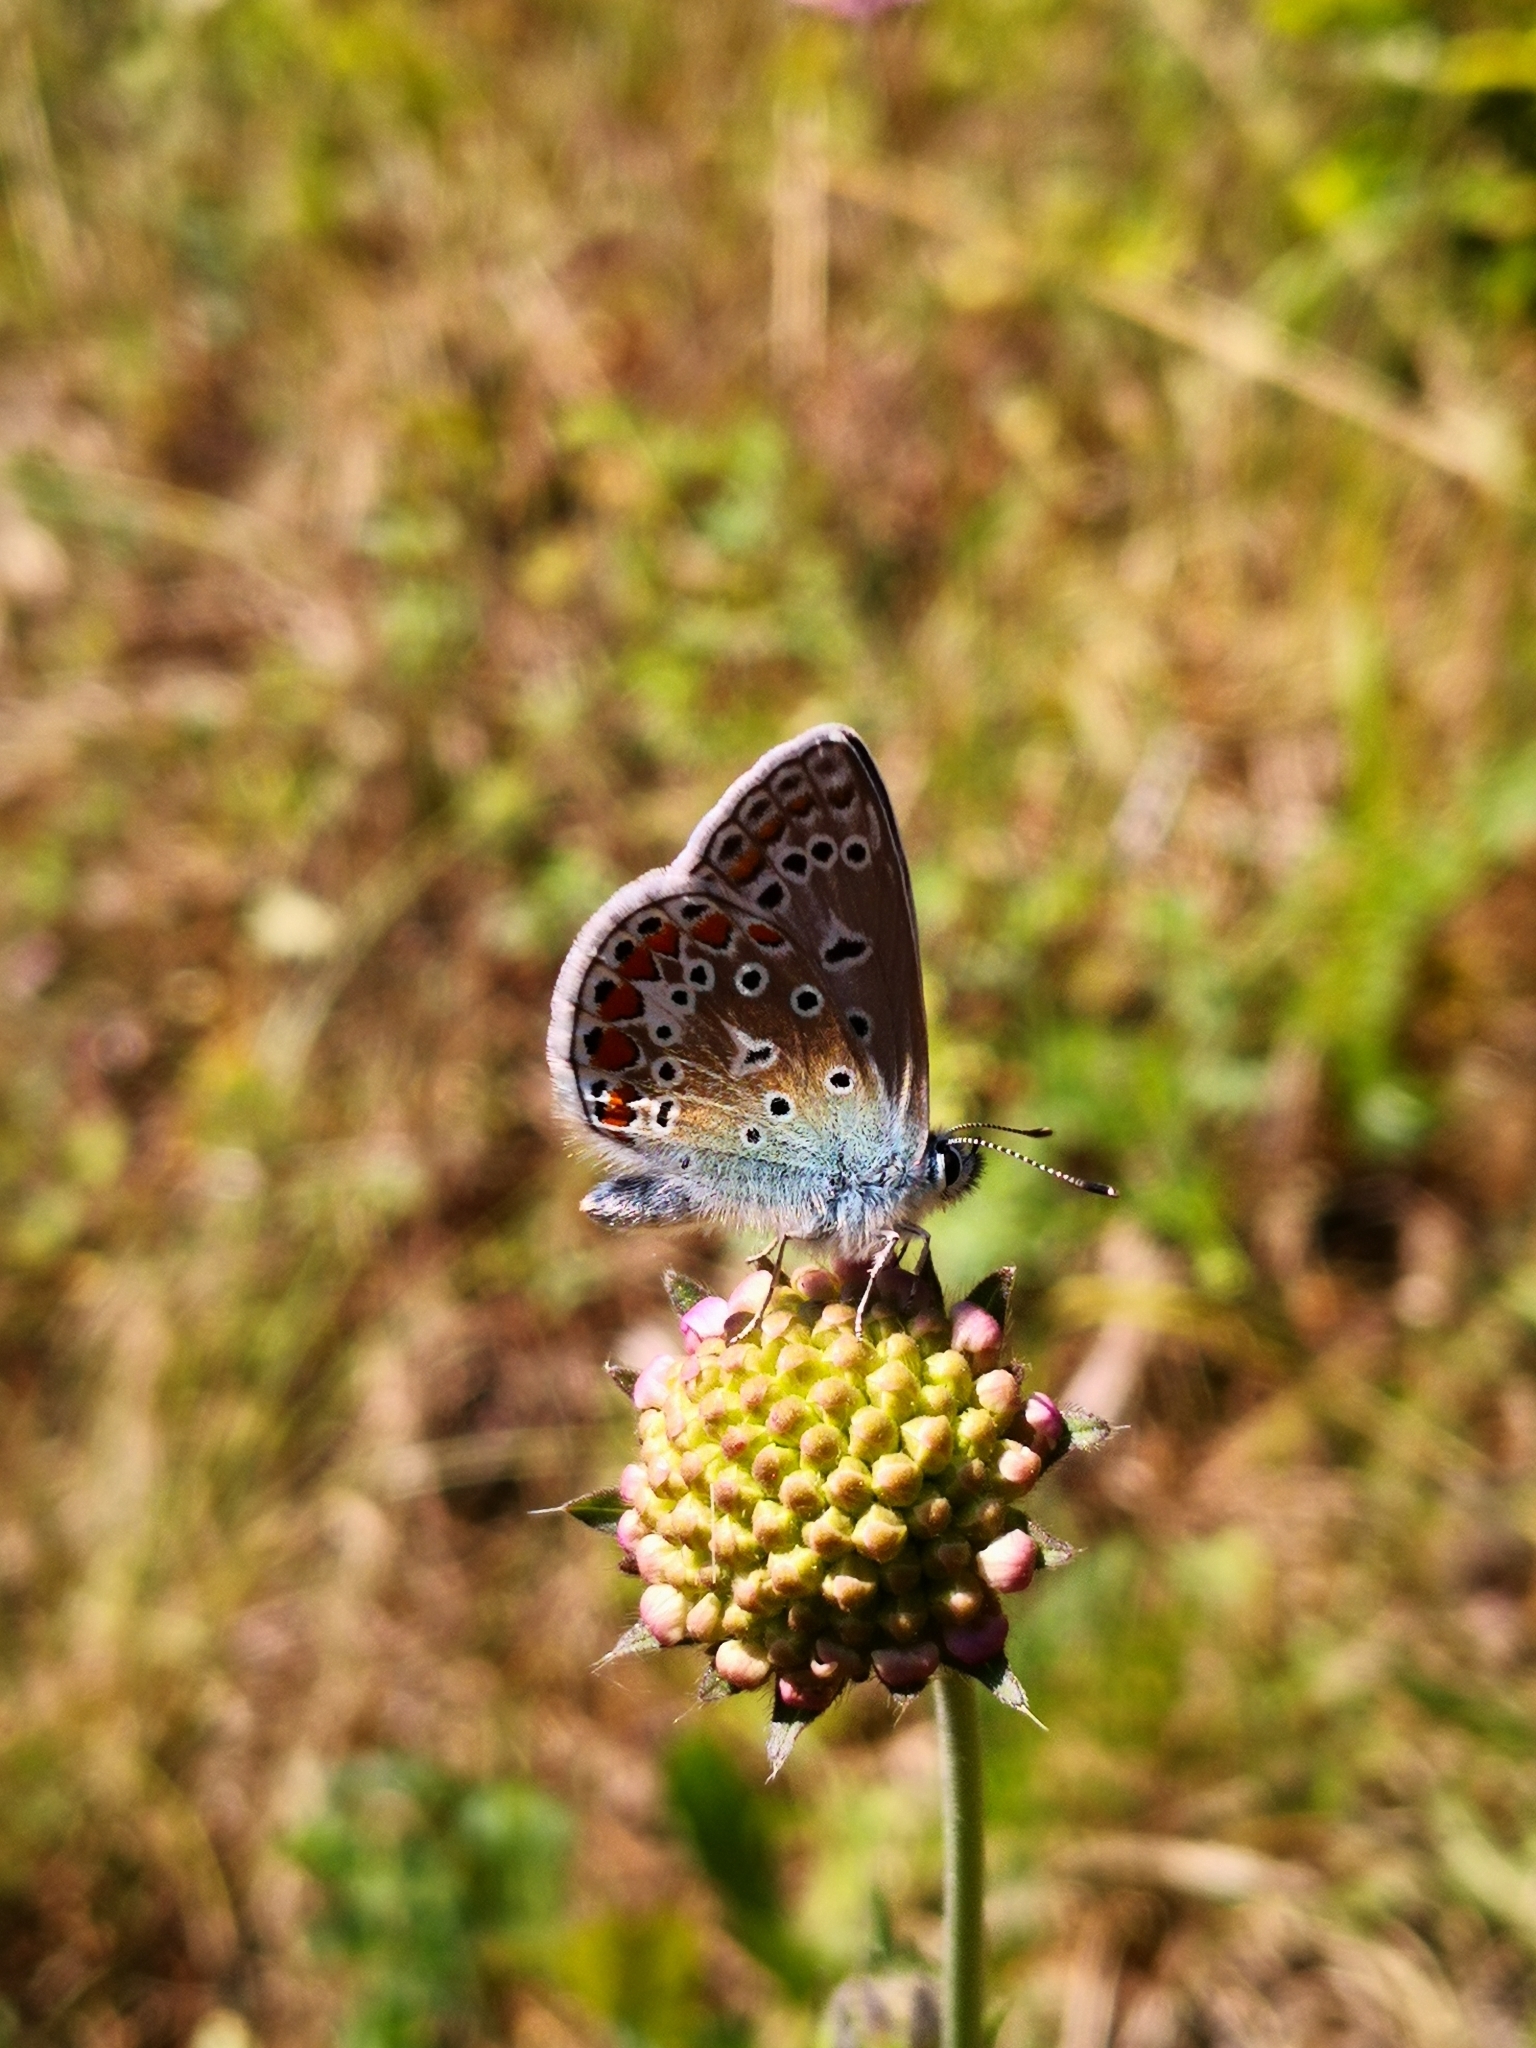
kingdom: Animalia
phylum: Arthropoda
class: Insecta
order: Lepidoptera
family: Lycaenidae
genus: Polyommatus
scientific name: Polyommatus icarus
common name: Common blue
